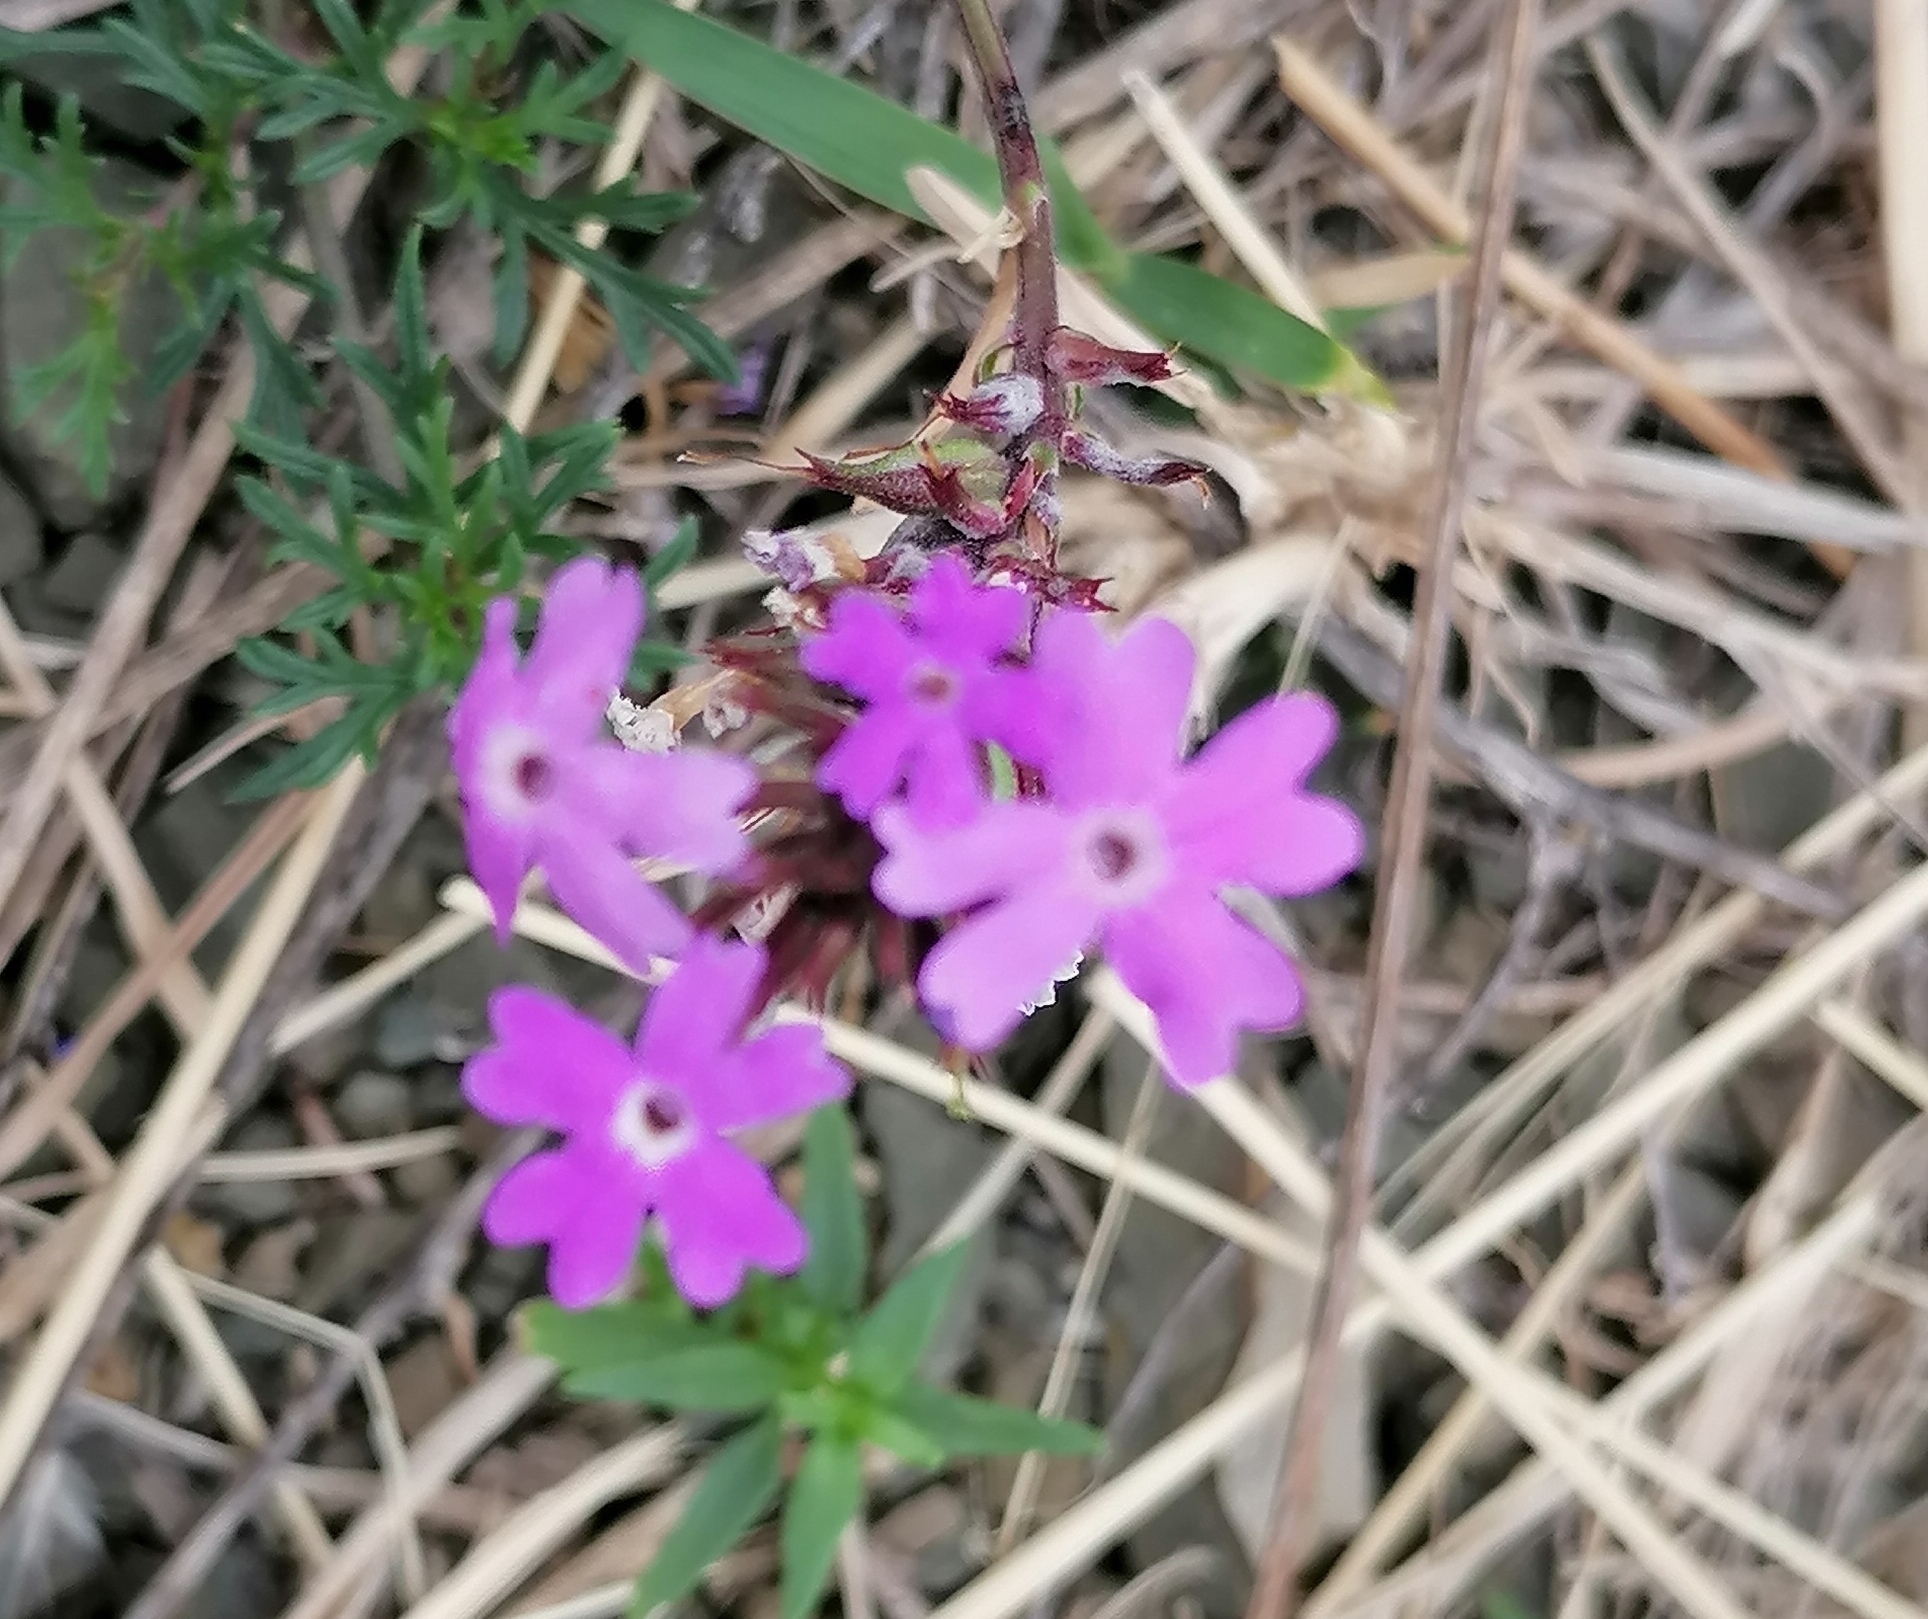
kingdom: Plantae
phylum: Tracheophyta
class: Magnoliopsida
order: Lamiales
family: Verbenaceae
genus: Verbena
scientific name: Verbena aristigera
